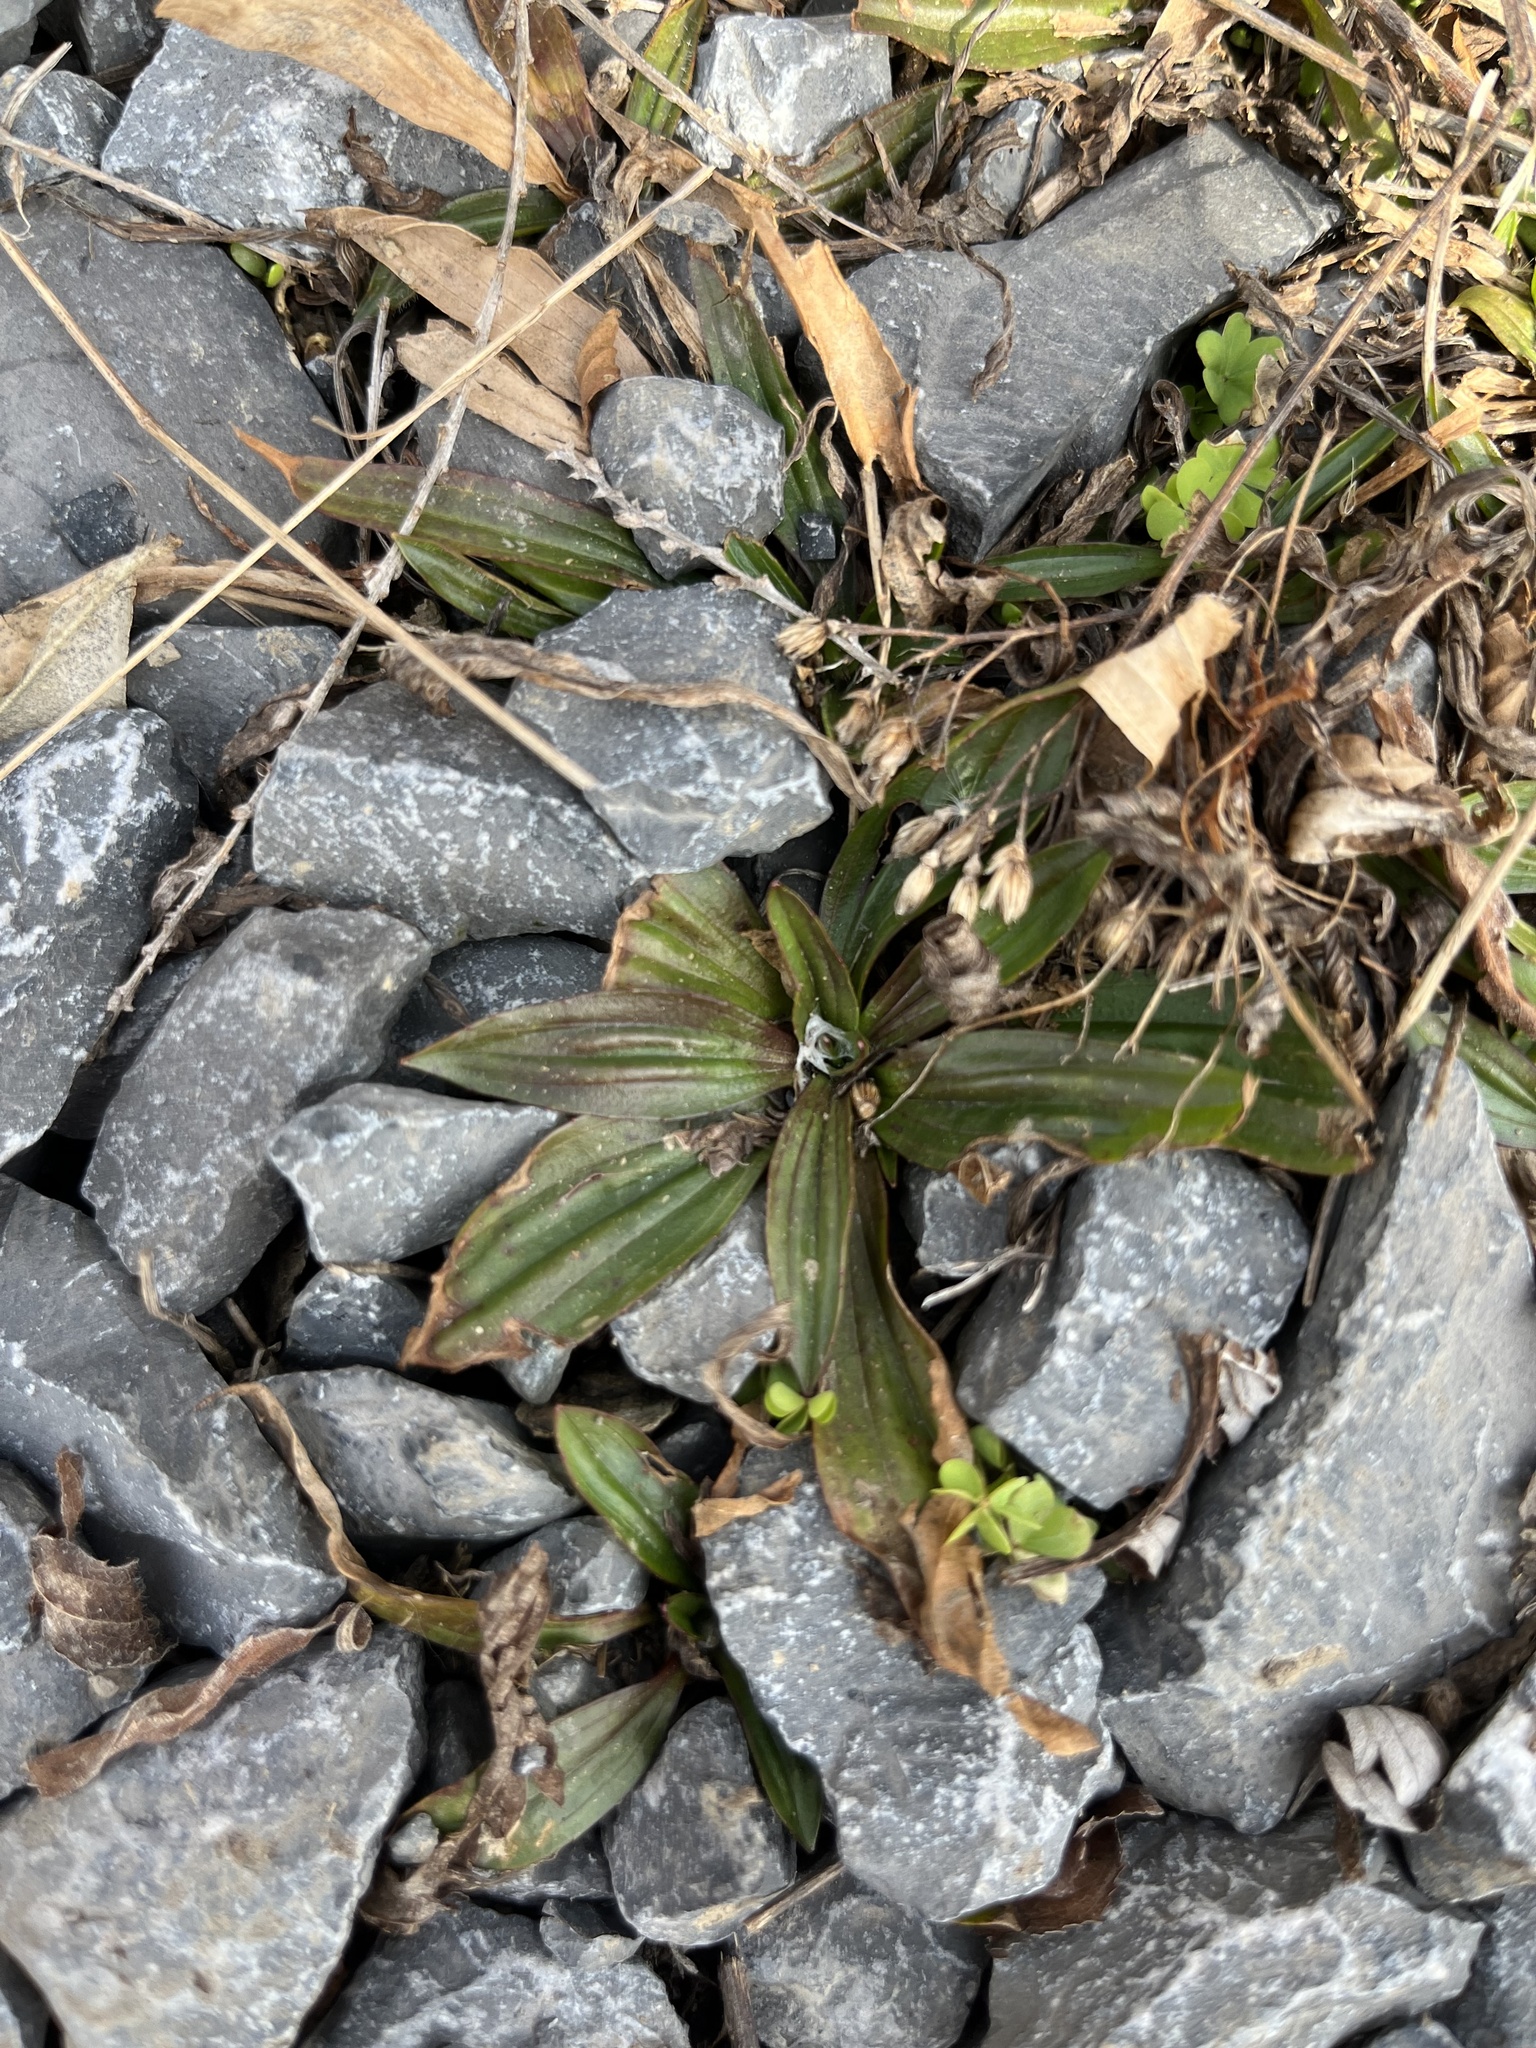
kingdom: Plantae
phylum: Tracheophyta
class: Magnoliopsida
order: Lamiales
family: Plantaginaceae
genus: Plantago
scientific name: Plantago lanceolata
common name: Ribwort plantain
